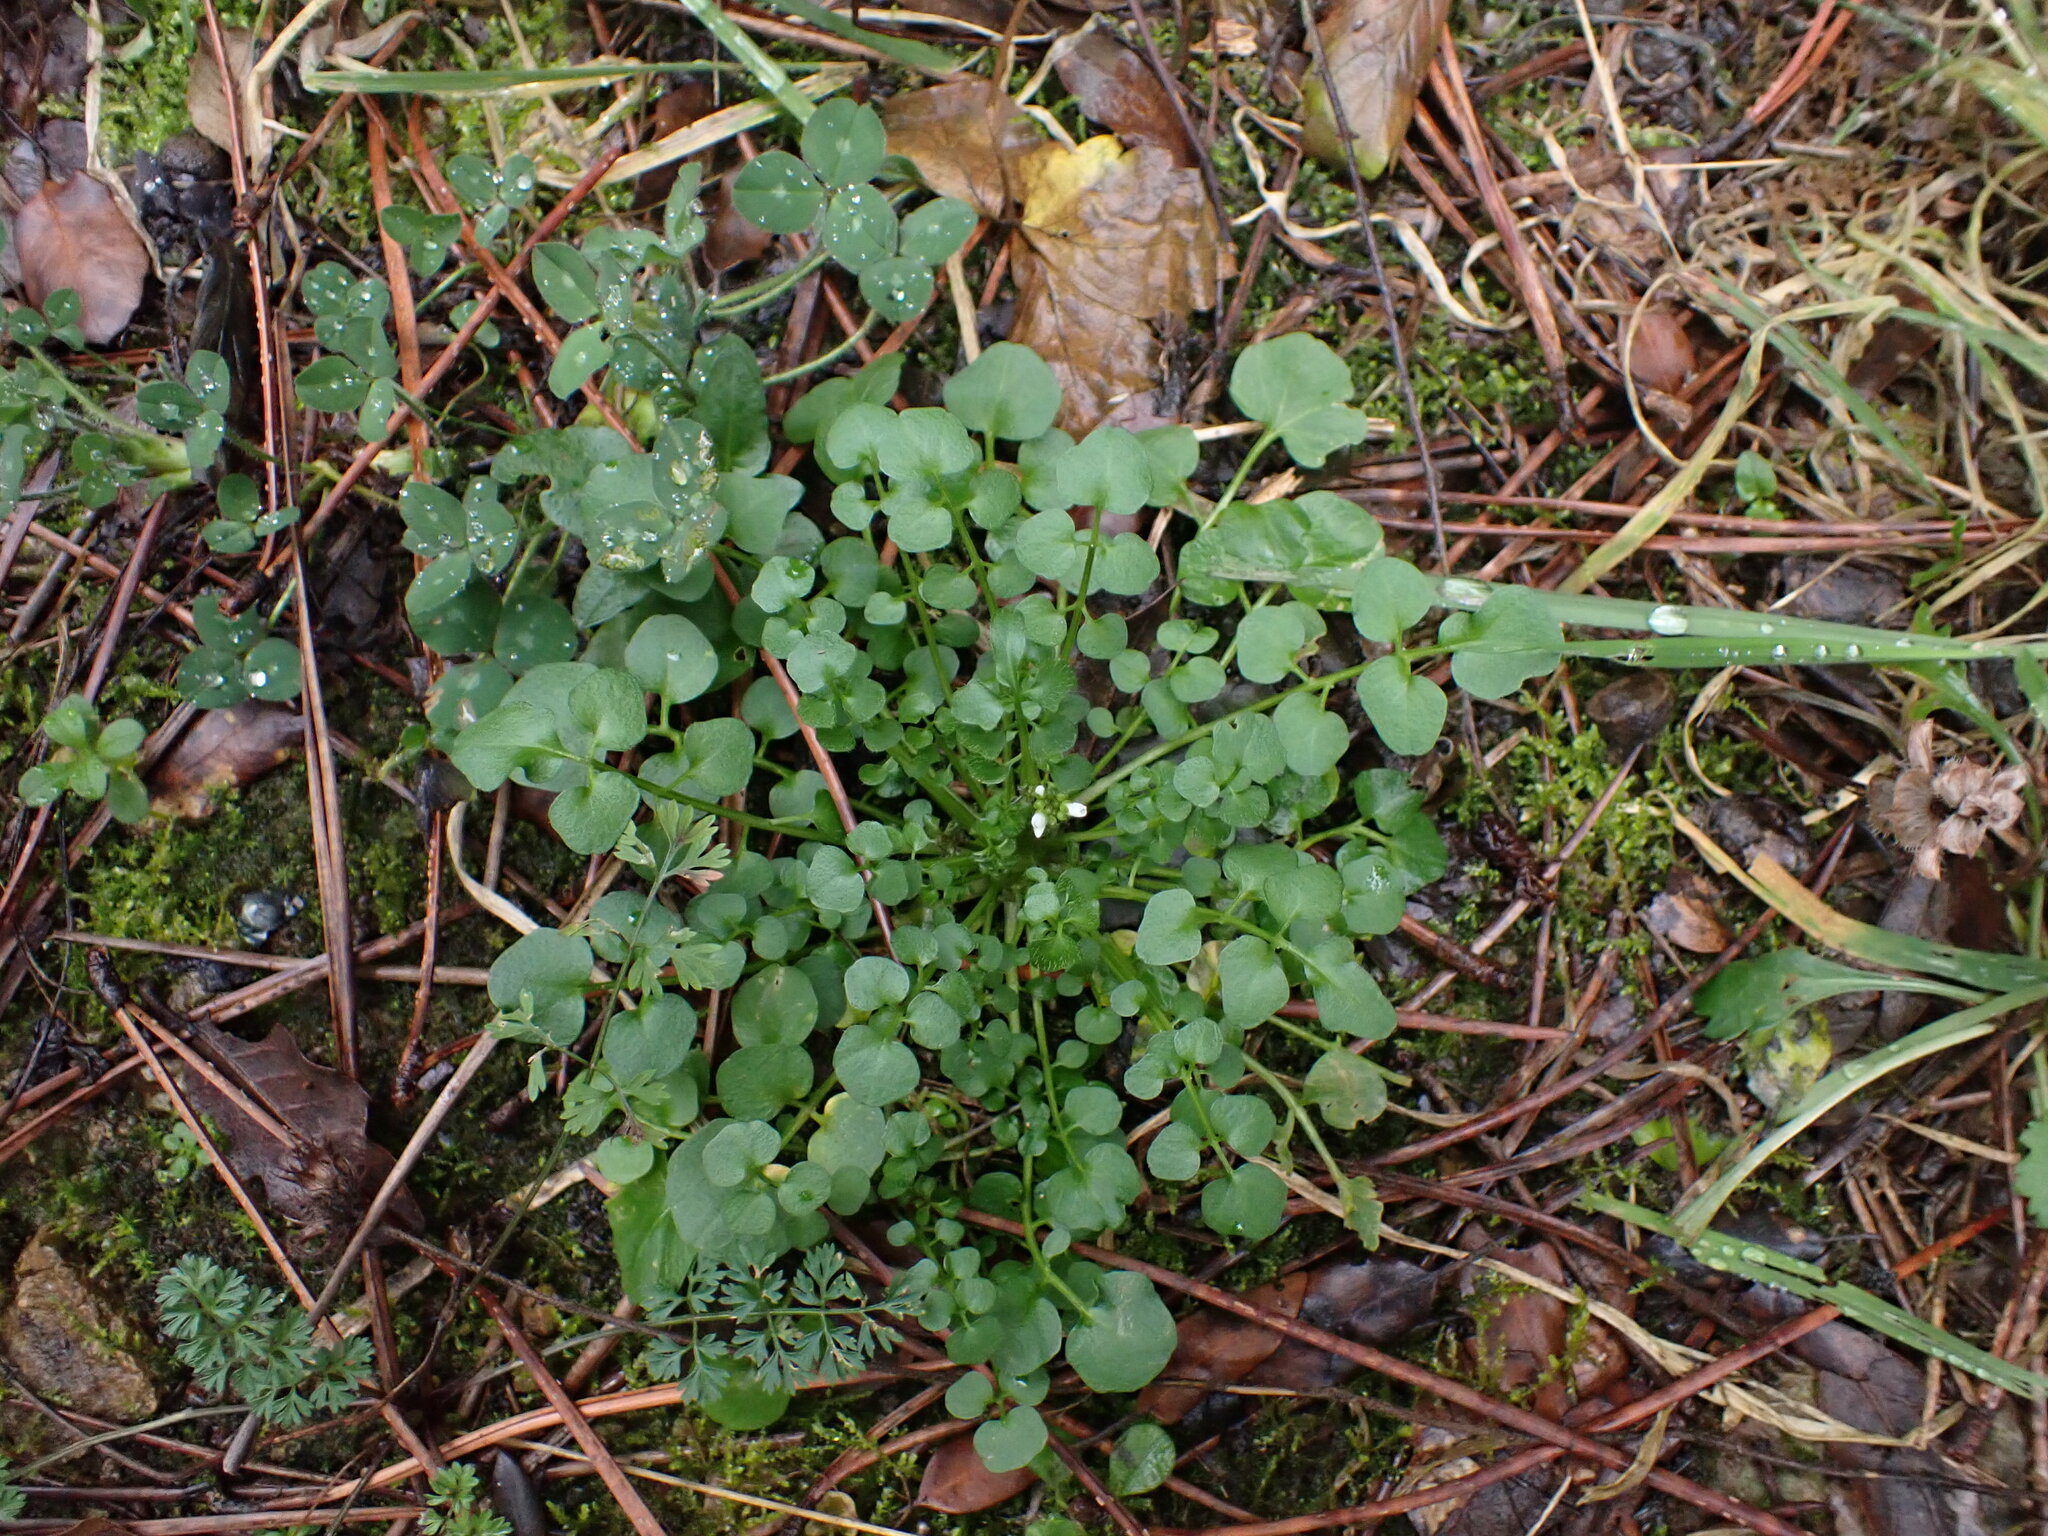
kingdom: Plantae
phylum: Tracheophyta
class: Magnoliopsida
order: Brassicales
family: Brassicaceae
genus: Cardamine
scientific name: Cardamine hirsuta
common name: Hairy bittercress
